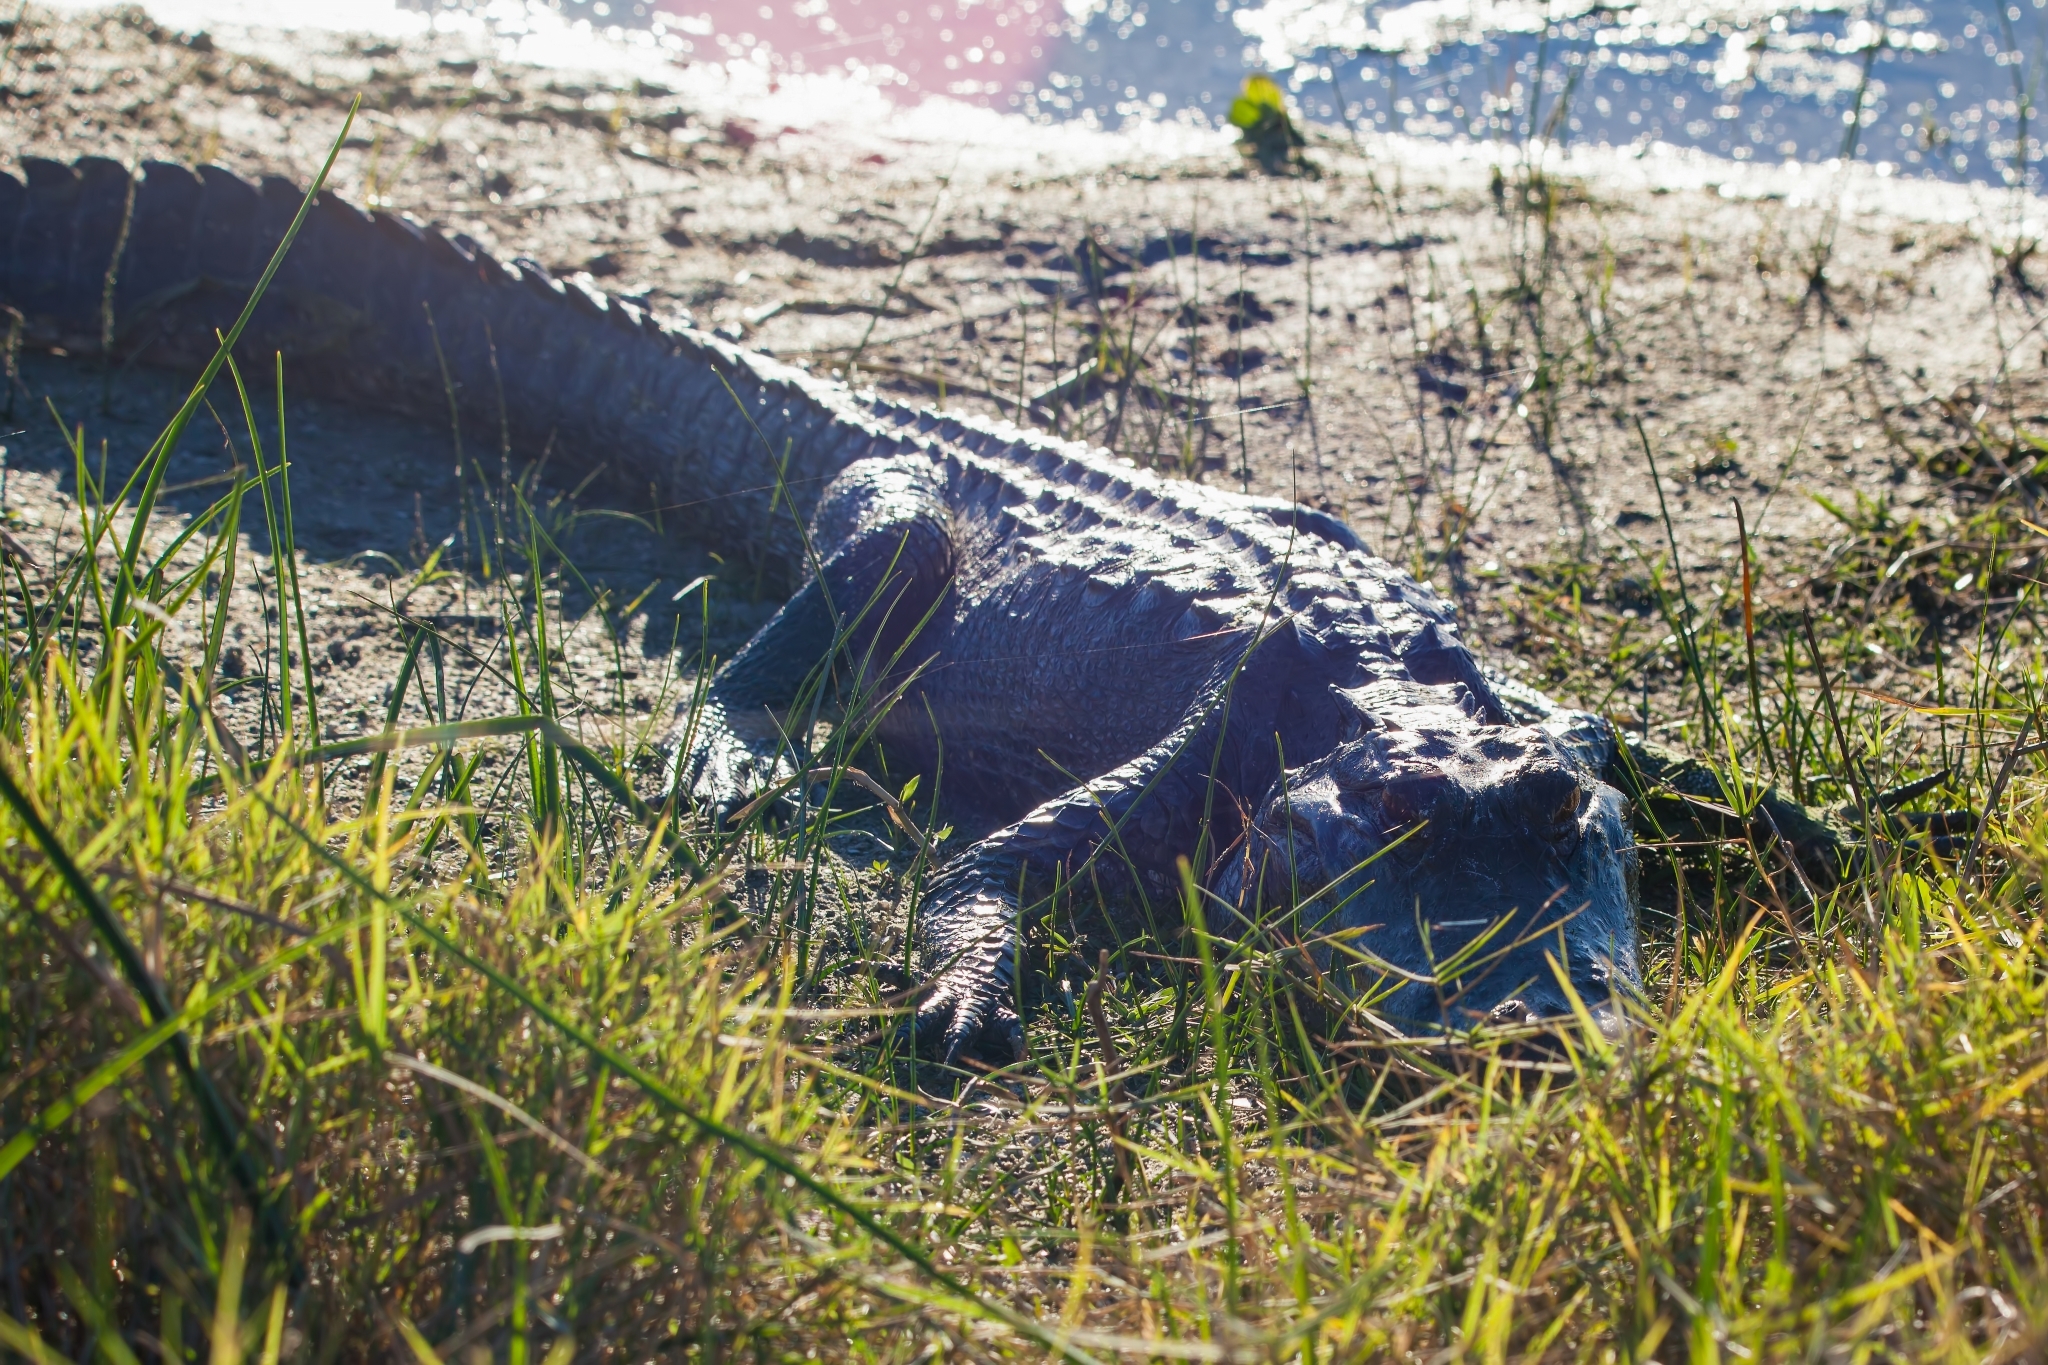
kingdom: Animalia
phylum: Chordata
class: Crocodylia
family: Alligatoridae
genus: Alligator
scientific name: Alligator mississippiensis
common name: American alligator
